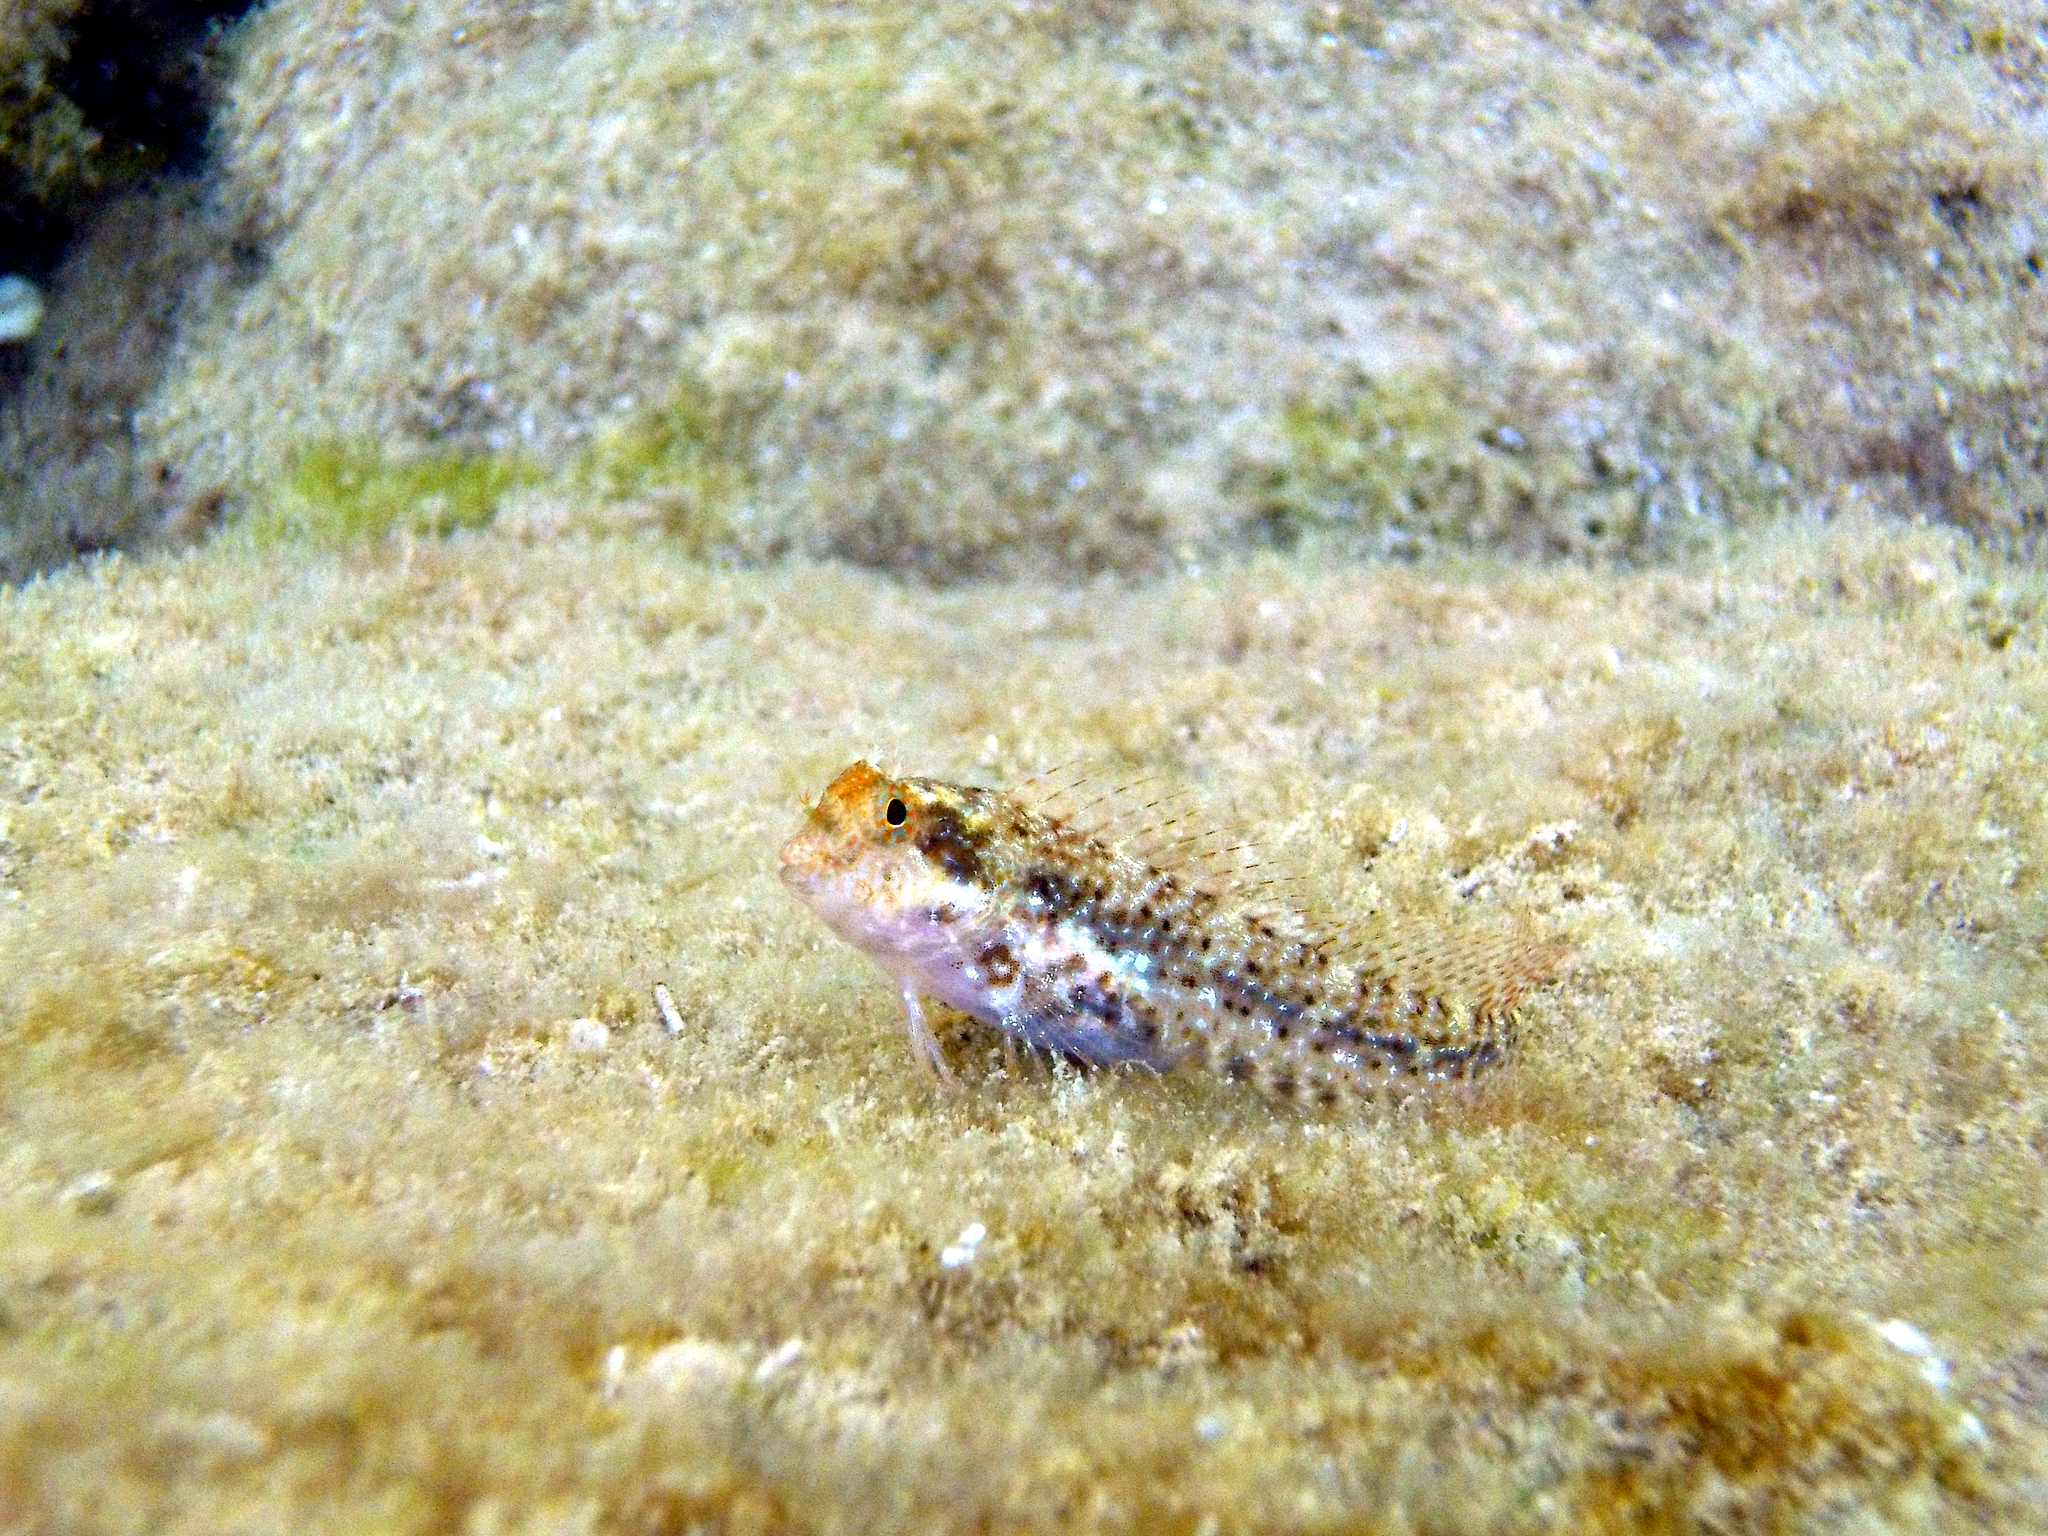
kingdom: Animalia
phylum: Chordata
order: Perciformes
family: Blenniidae
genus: Parablennius
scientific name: Parablennius zvonimiri
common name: Red blenny
